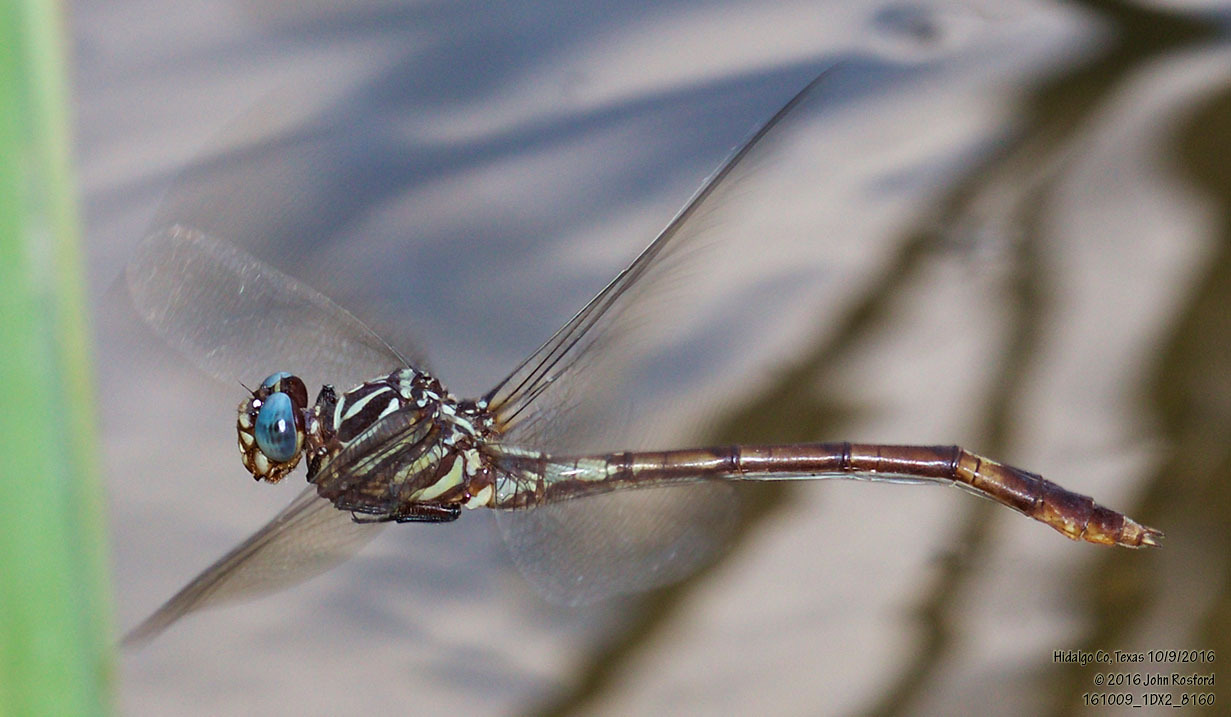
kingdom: Animalia
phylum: Arthropoda
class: Insecta
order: Odonata
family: Gomphidae
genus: Aphylla
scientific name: Aphylla protracta
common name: Narrow-striped forceptail
